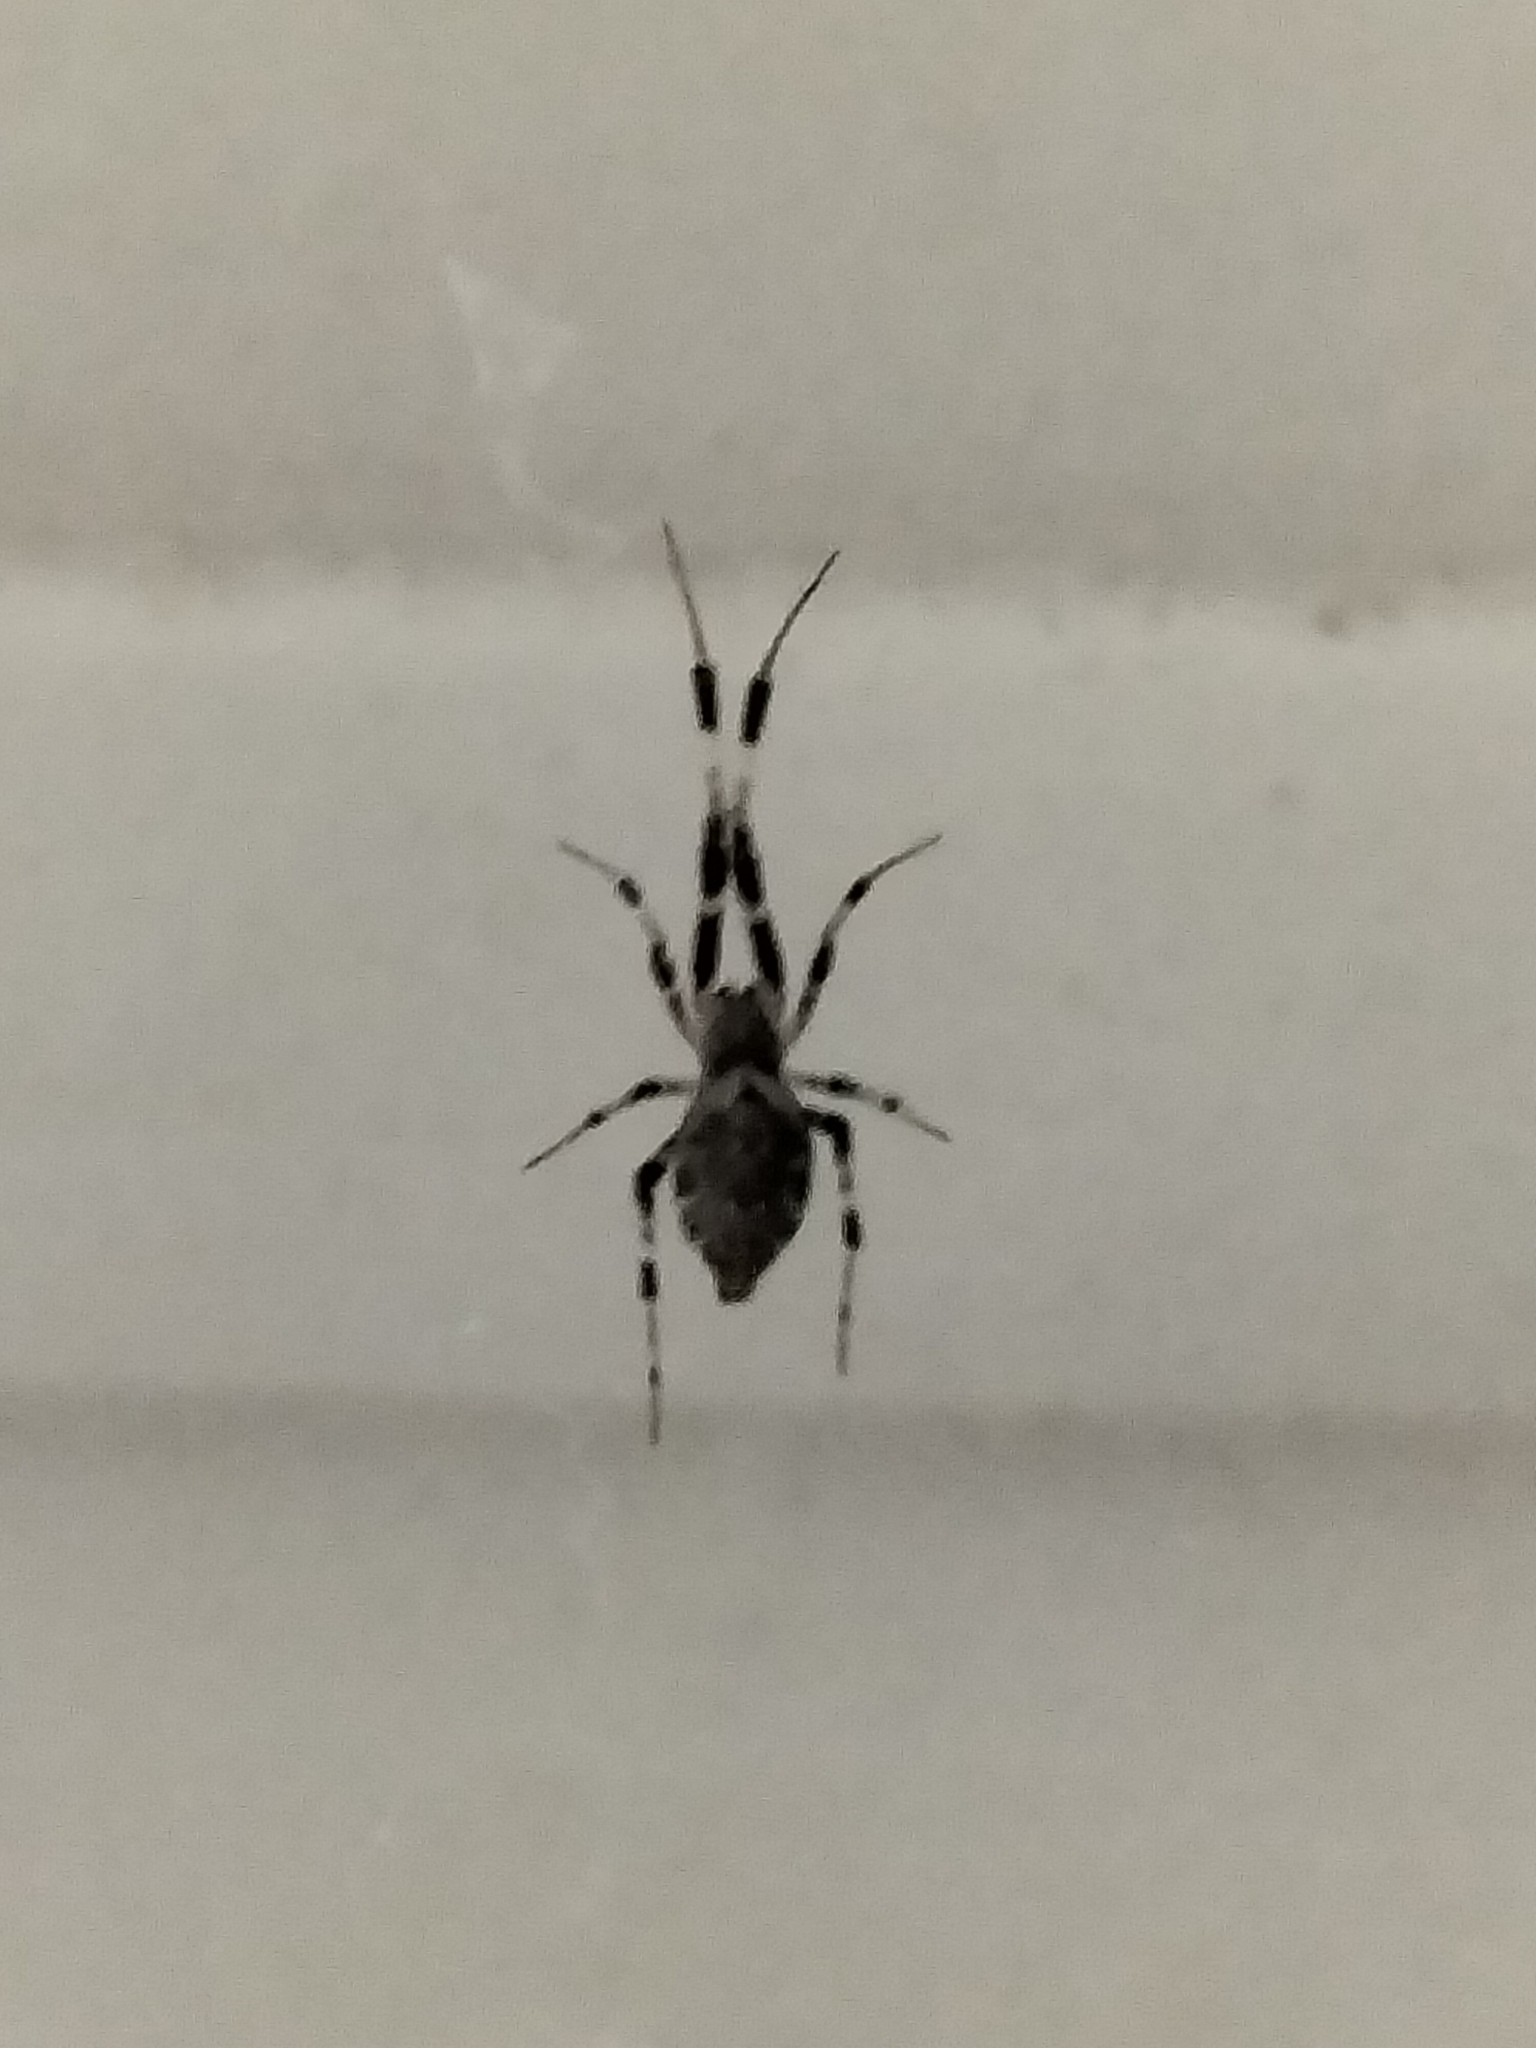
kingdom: Animalia
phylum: Arthropoda
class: Arachnida
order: Araneae
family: Uloboridae
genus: Zosis
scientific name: Zosis geniculata
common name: Hackled orb weavers
